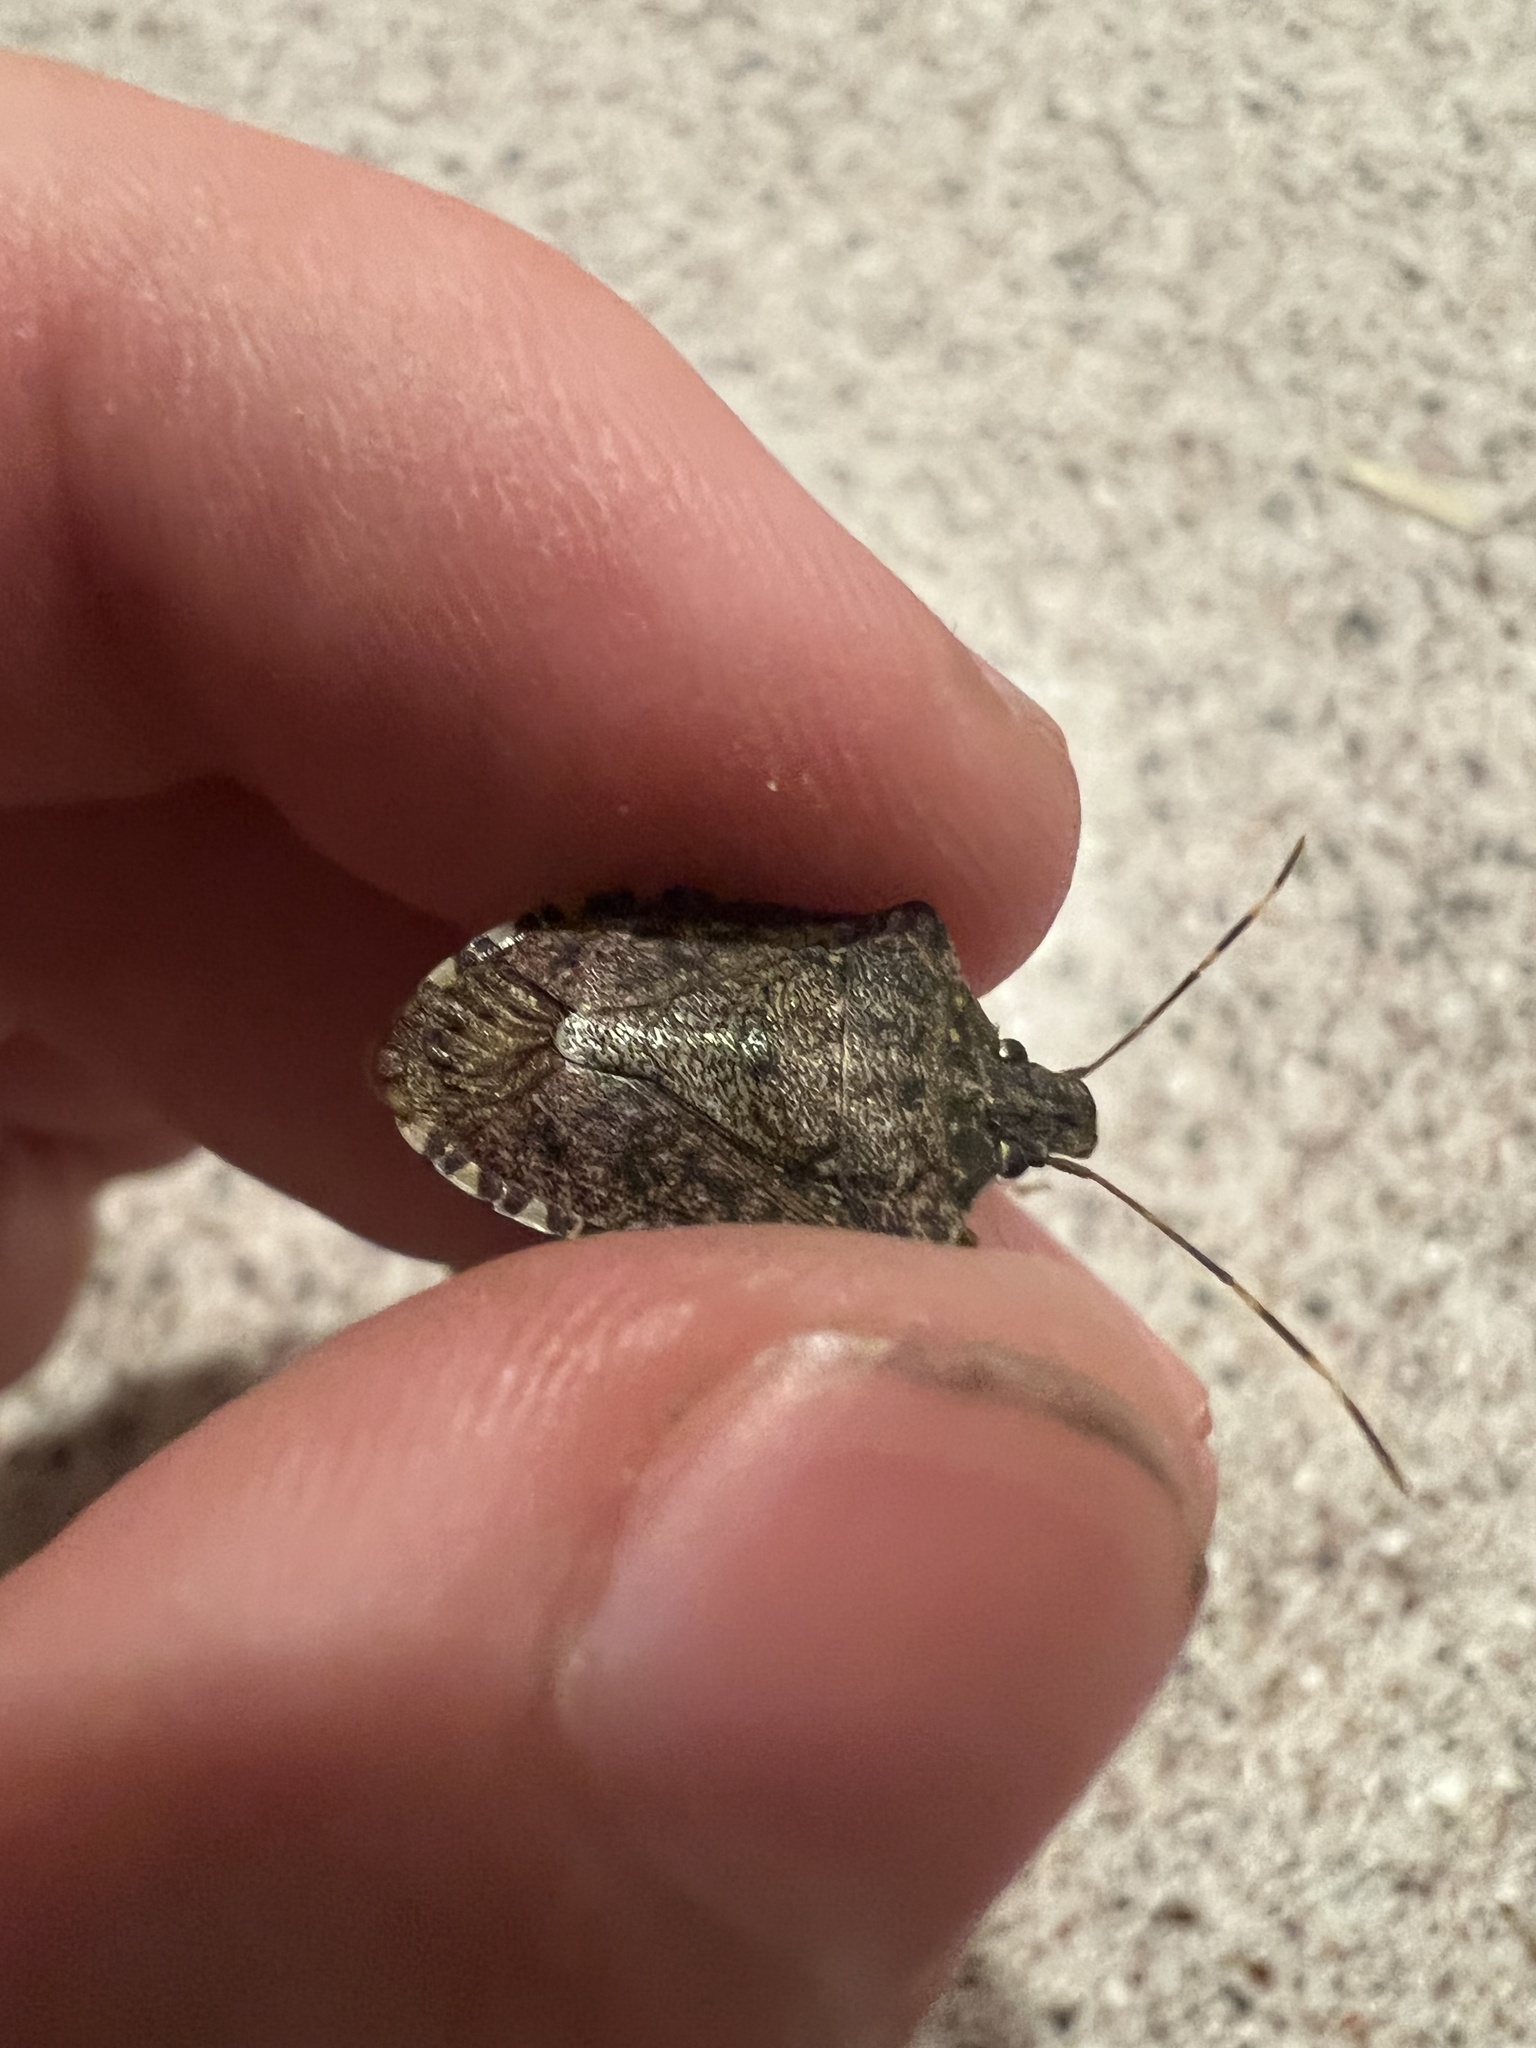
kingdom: Animalia
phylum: Arthropoda
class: Insecta
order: Hemiptera
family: Pentatomidae
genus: Halyomorpha
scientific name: Halyomorpha halys
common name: Brown marmorated stink bug
